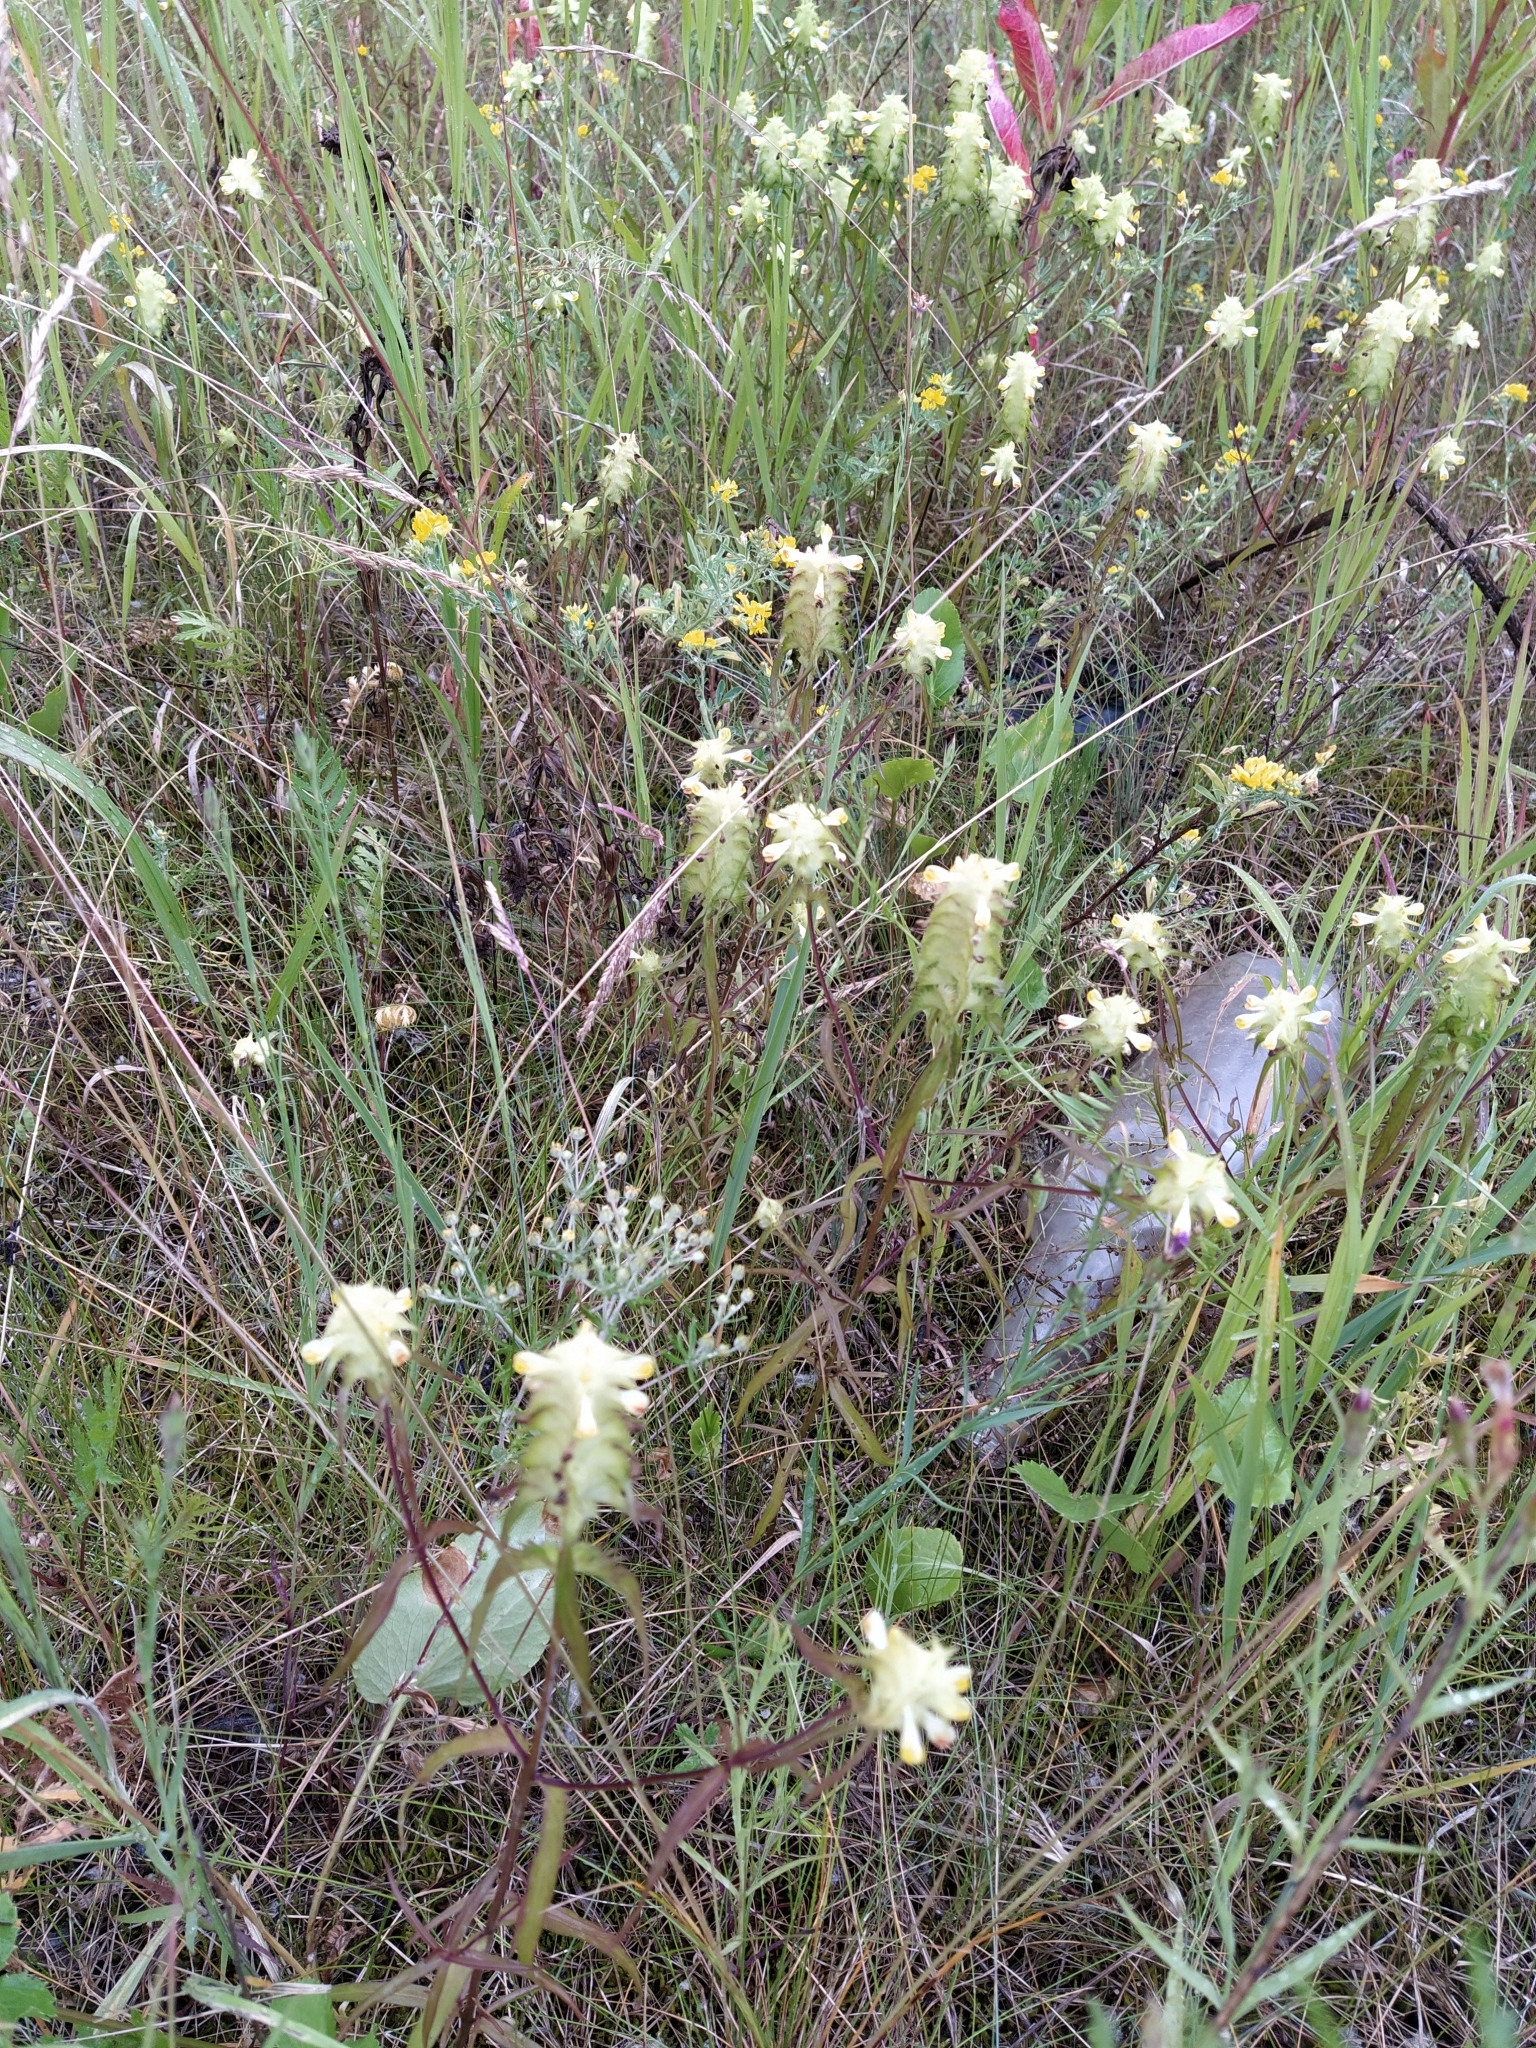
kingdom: Plantae
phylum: Tracheophyta
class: Magnoliopsida
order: Lamiales
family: Orobanchaceae
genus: Melampyrum
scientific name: Melampyrum cristatum
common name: Crested cow-wheat
